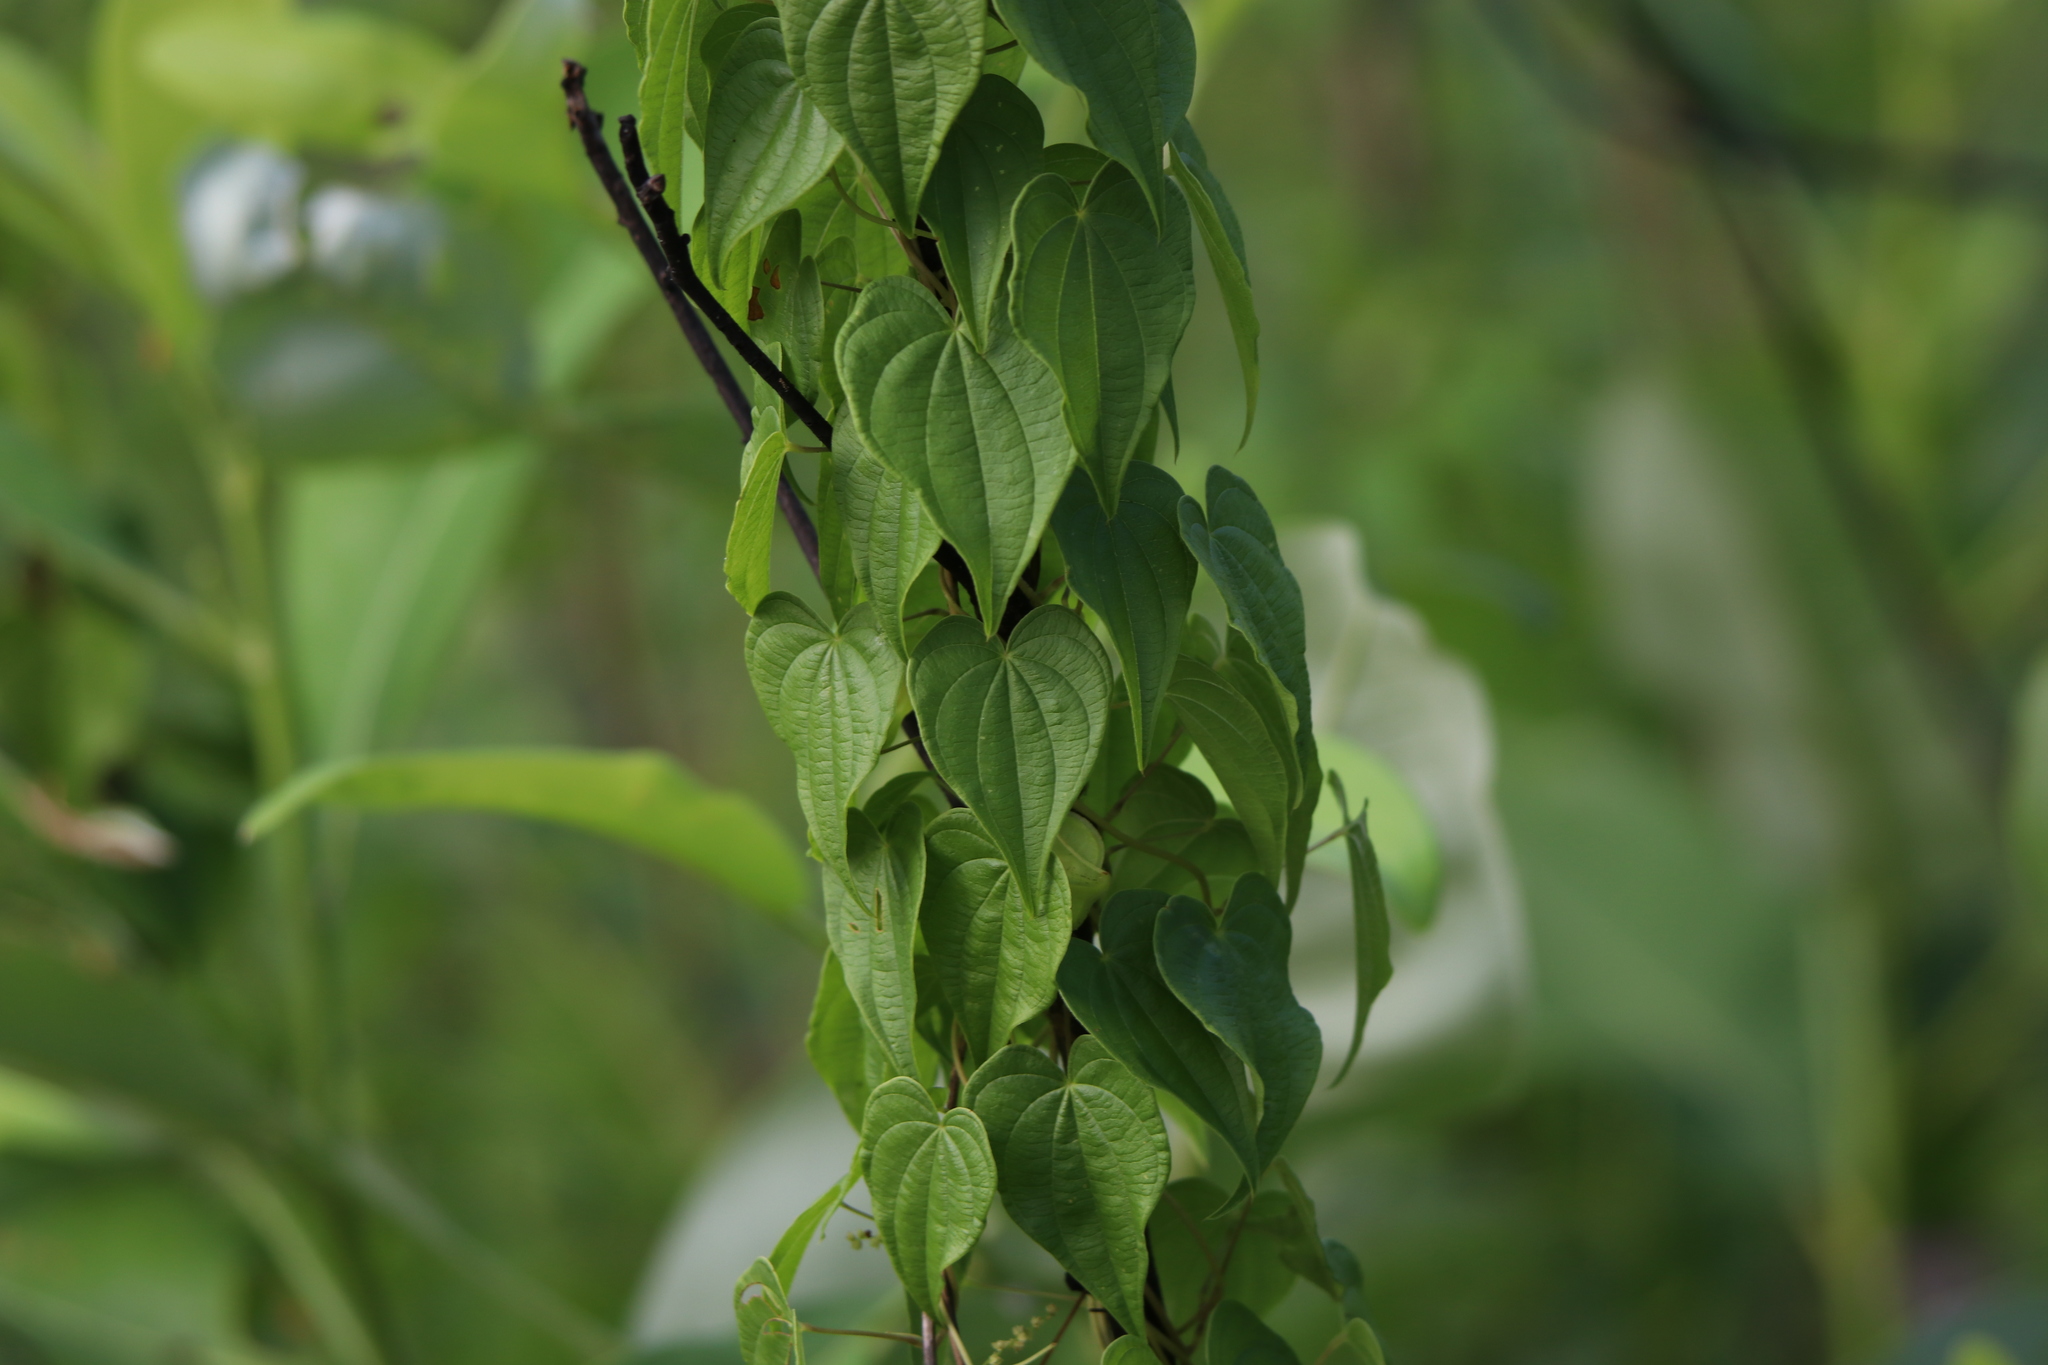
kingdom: Plantae
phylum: Tracheophyta
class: Liliopsida
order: Dioscoreales
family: Dioscoreaceae
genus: Dioscorea
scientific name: Dioscorea villosa
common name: Wild yam
